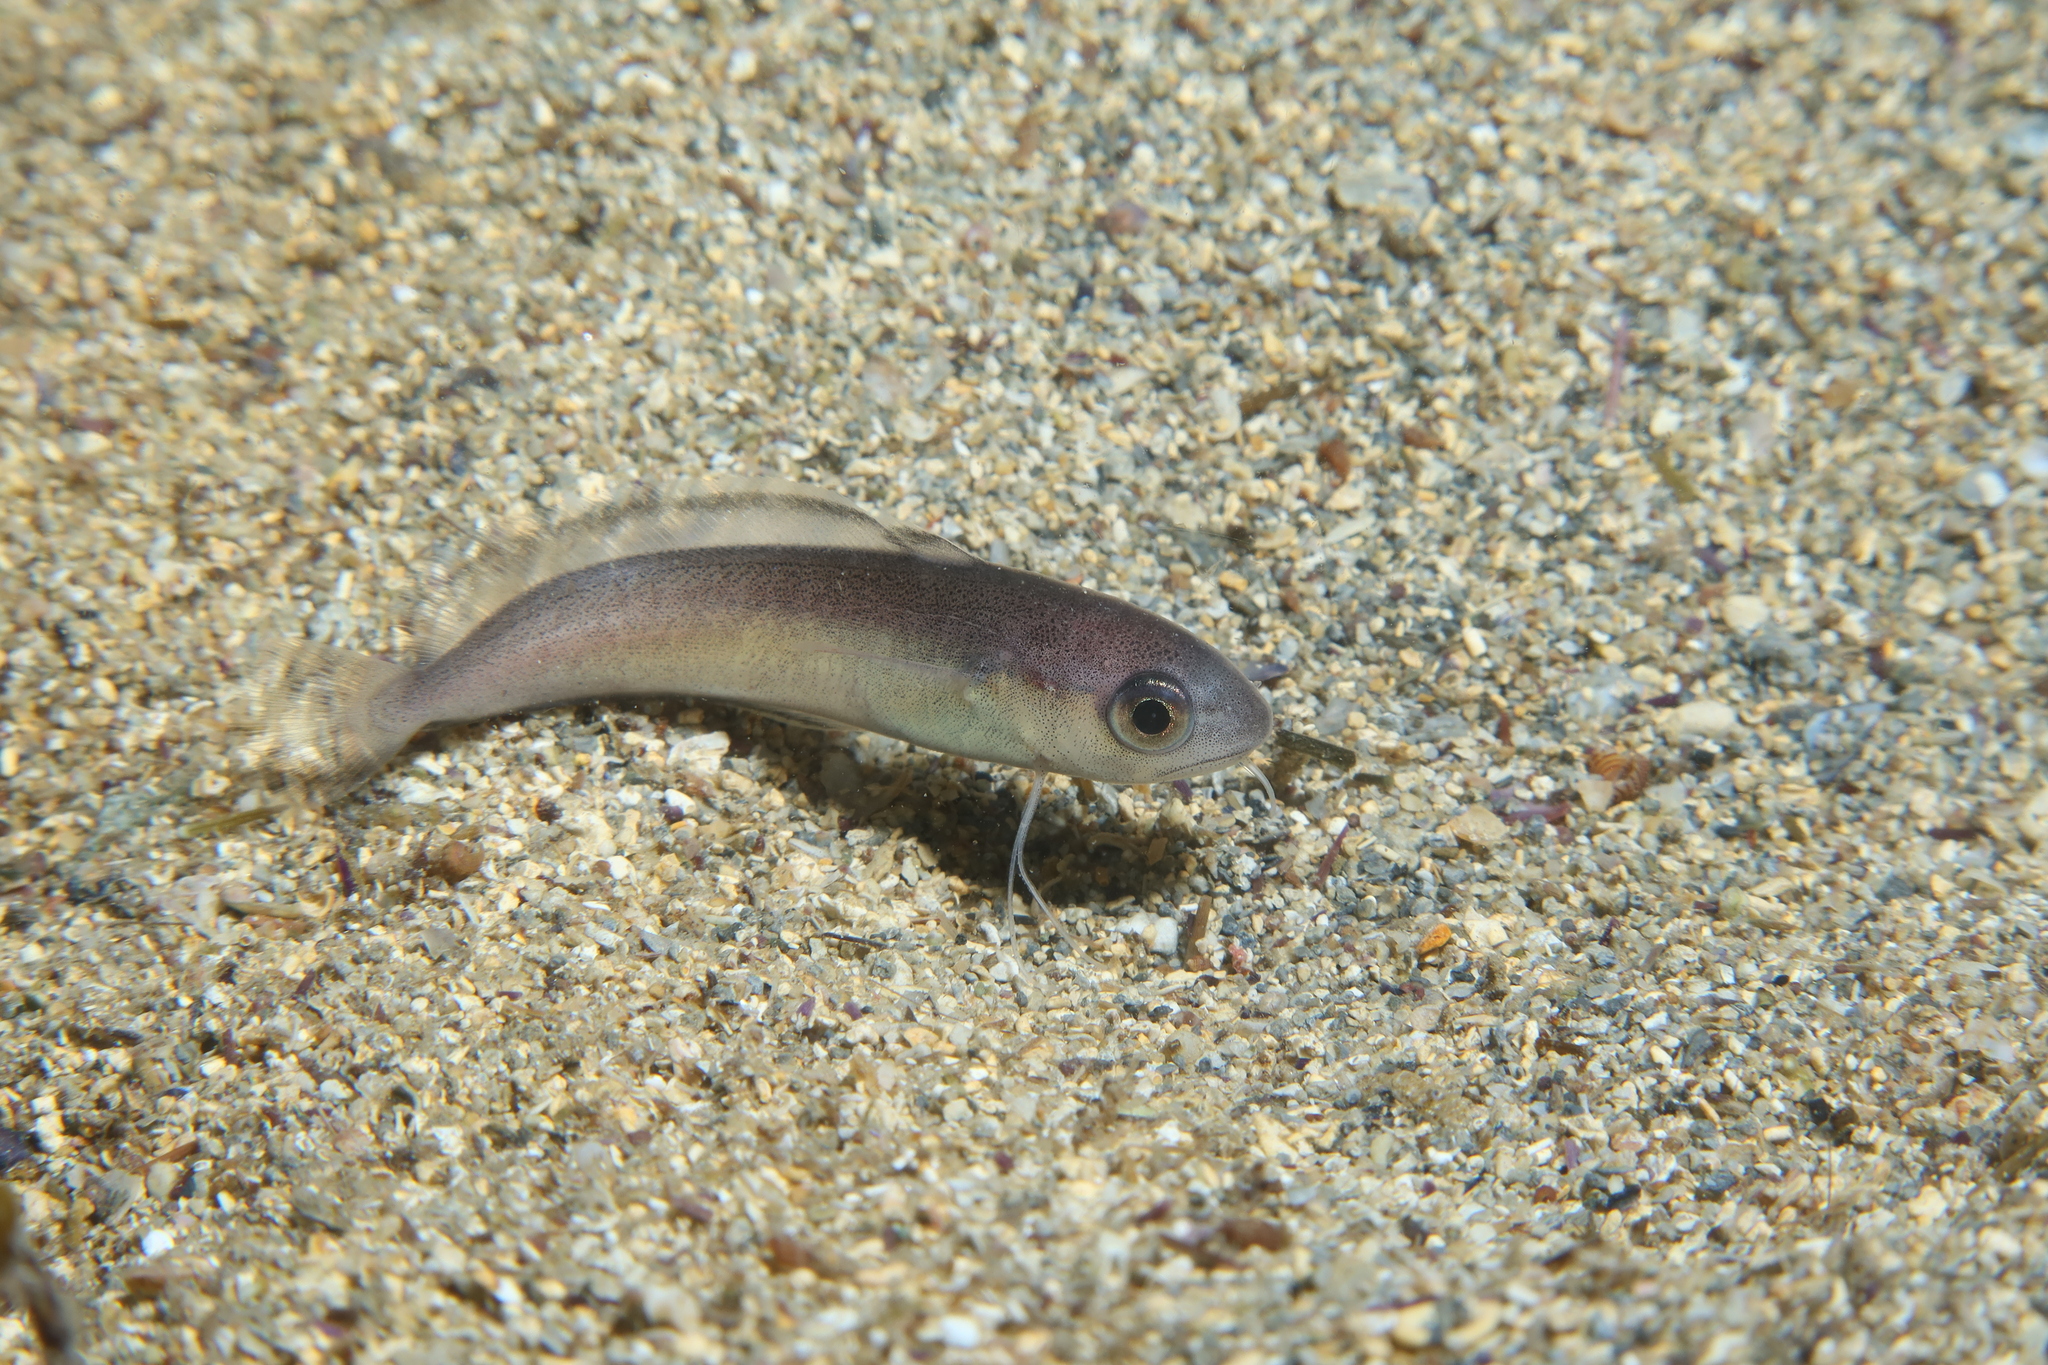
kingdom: Animalia
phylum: Chordata
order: Gadiformes
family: Phycidae
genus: Phycis
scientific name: Phycis phycis
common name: Forkbeard
